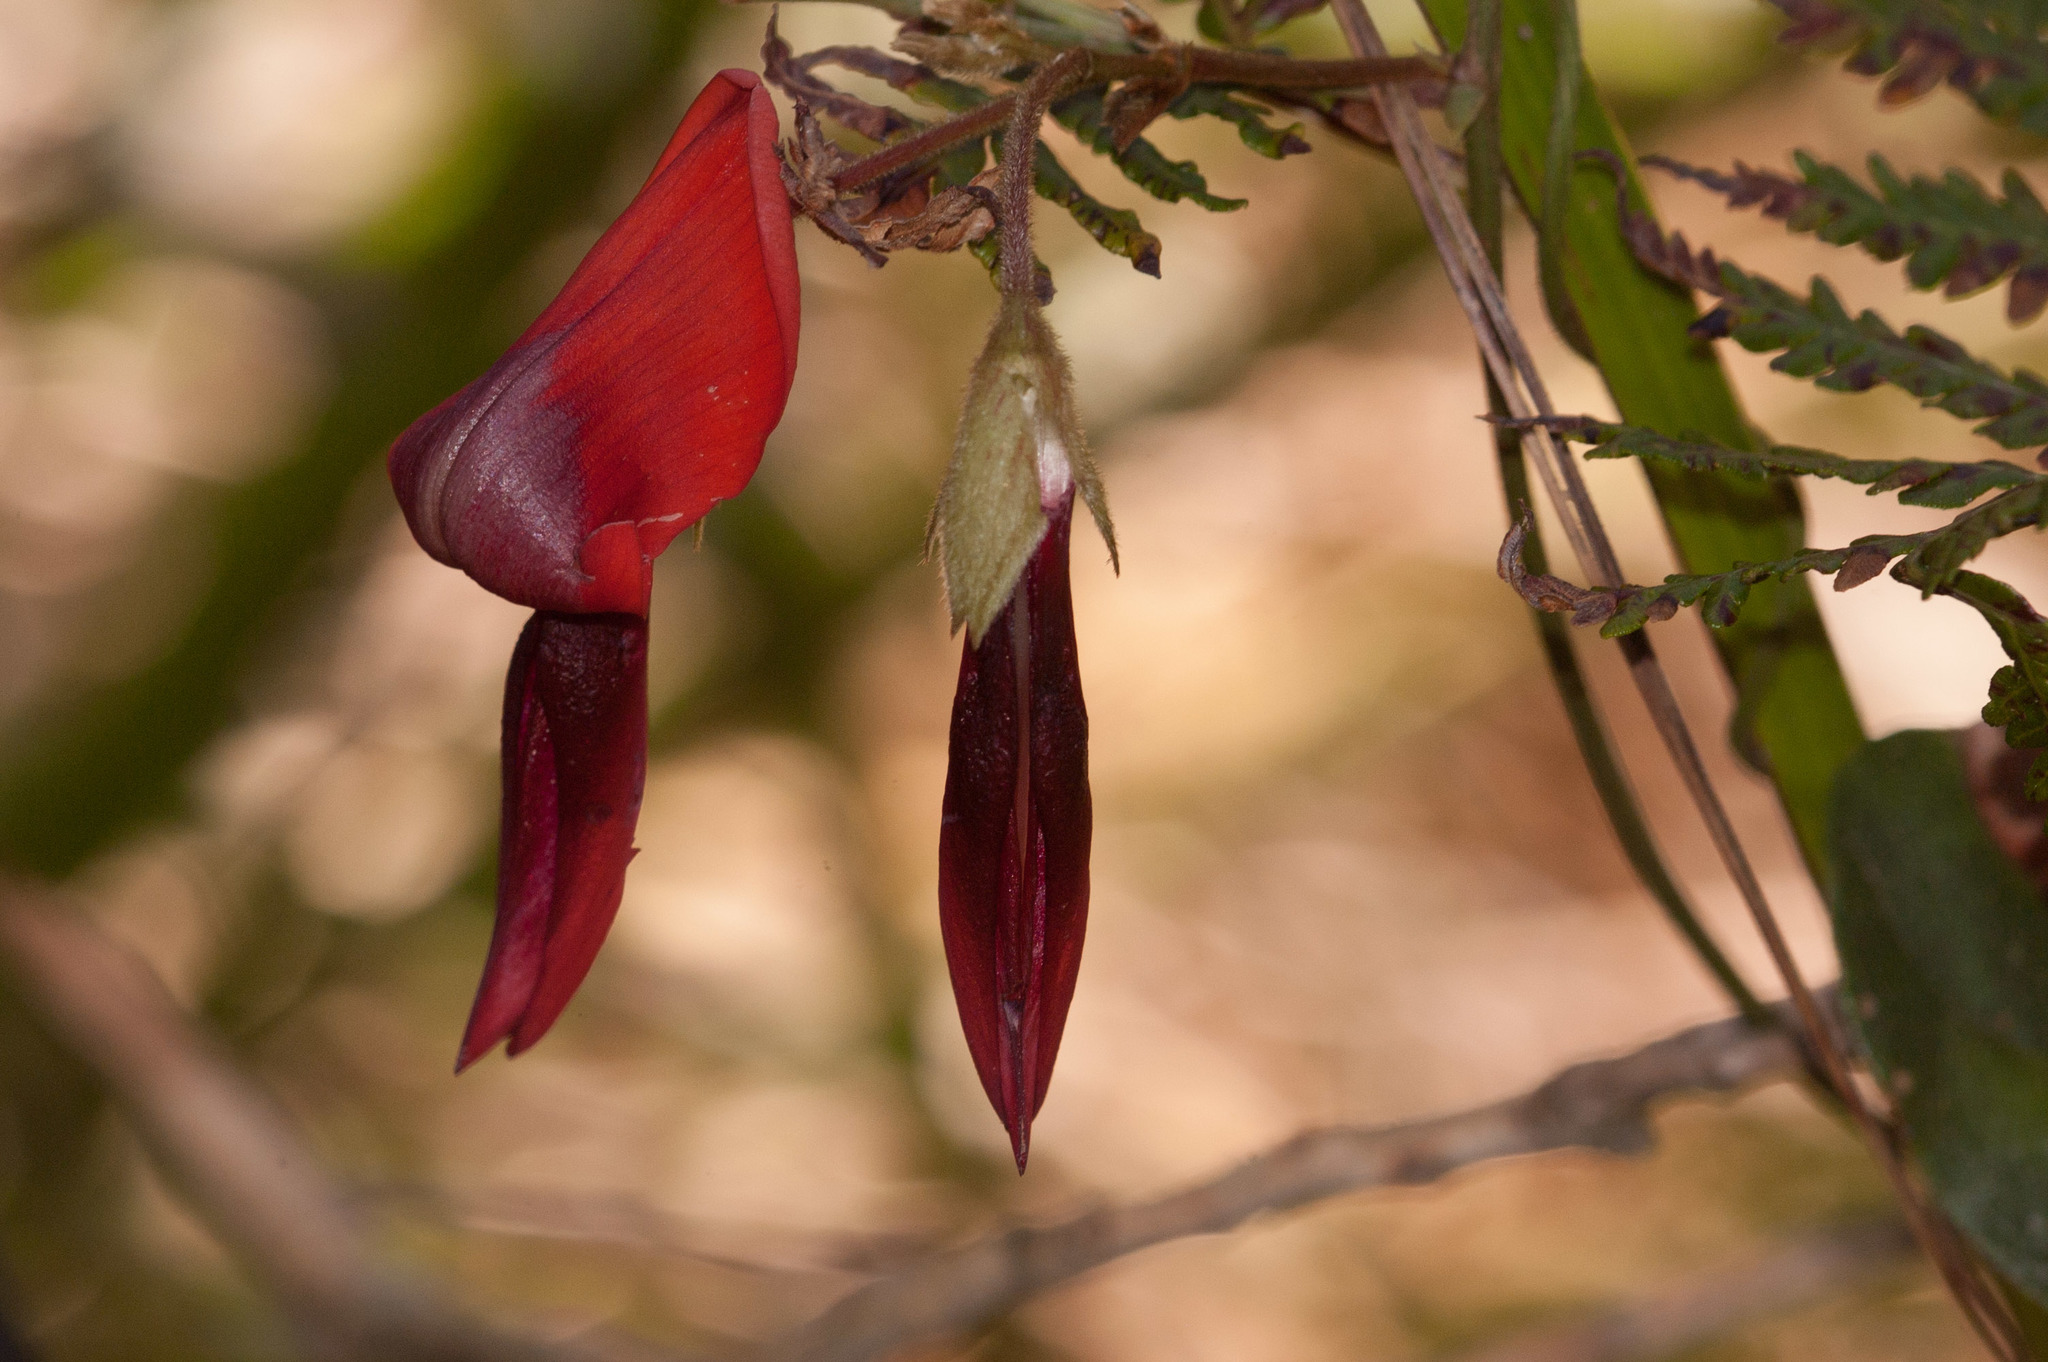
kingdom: Plantae
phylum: Tracheophyta
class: Magnoliopsida
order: Fabales
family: Fabaceae
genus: Kennedia
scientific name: Kennedia rubicunda
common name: Red kennedy-pea
